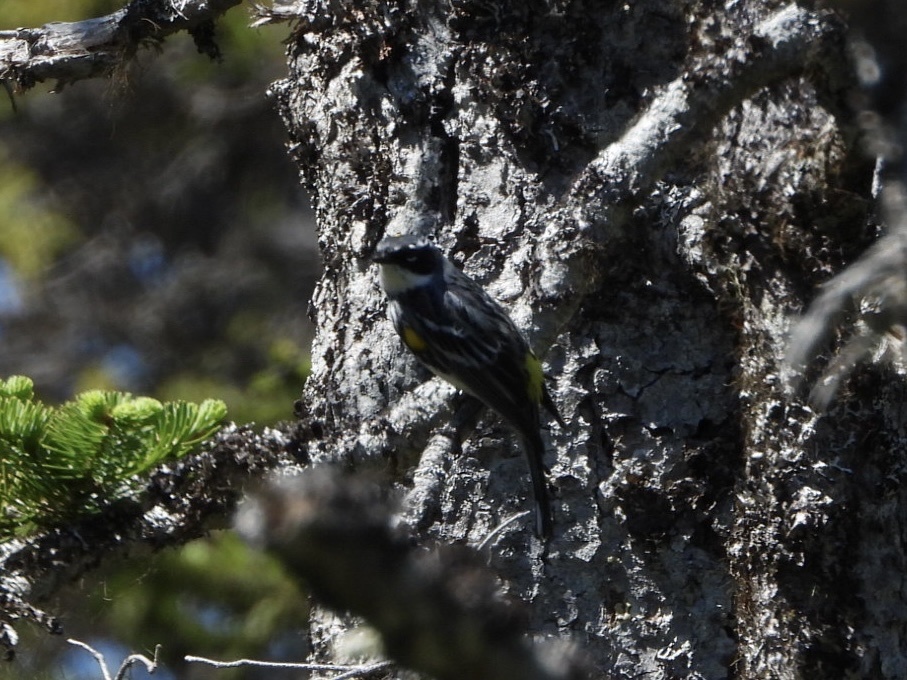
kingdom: Animalia
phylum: Chordata
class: Aves
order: Passeriformes
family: Parulidae
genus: Setophaga
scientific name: Setophaga coronata
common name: Myrtle warbler
